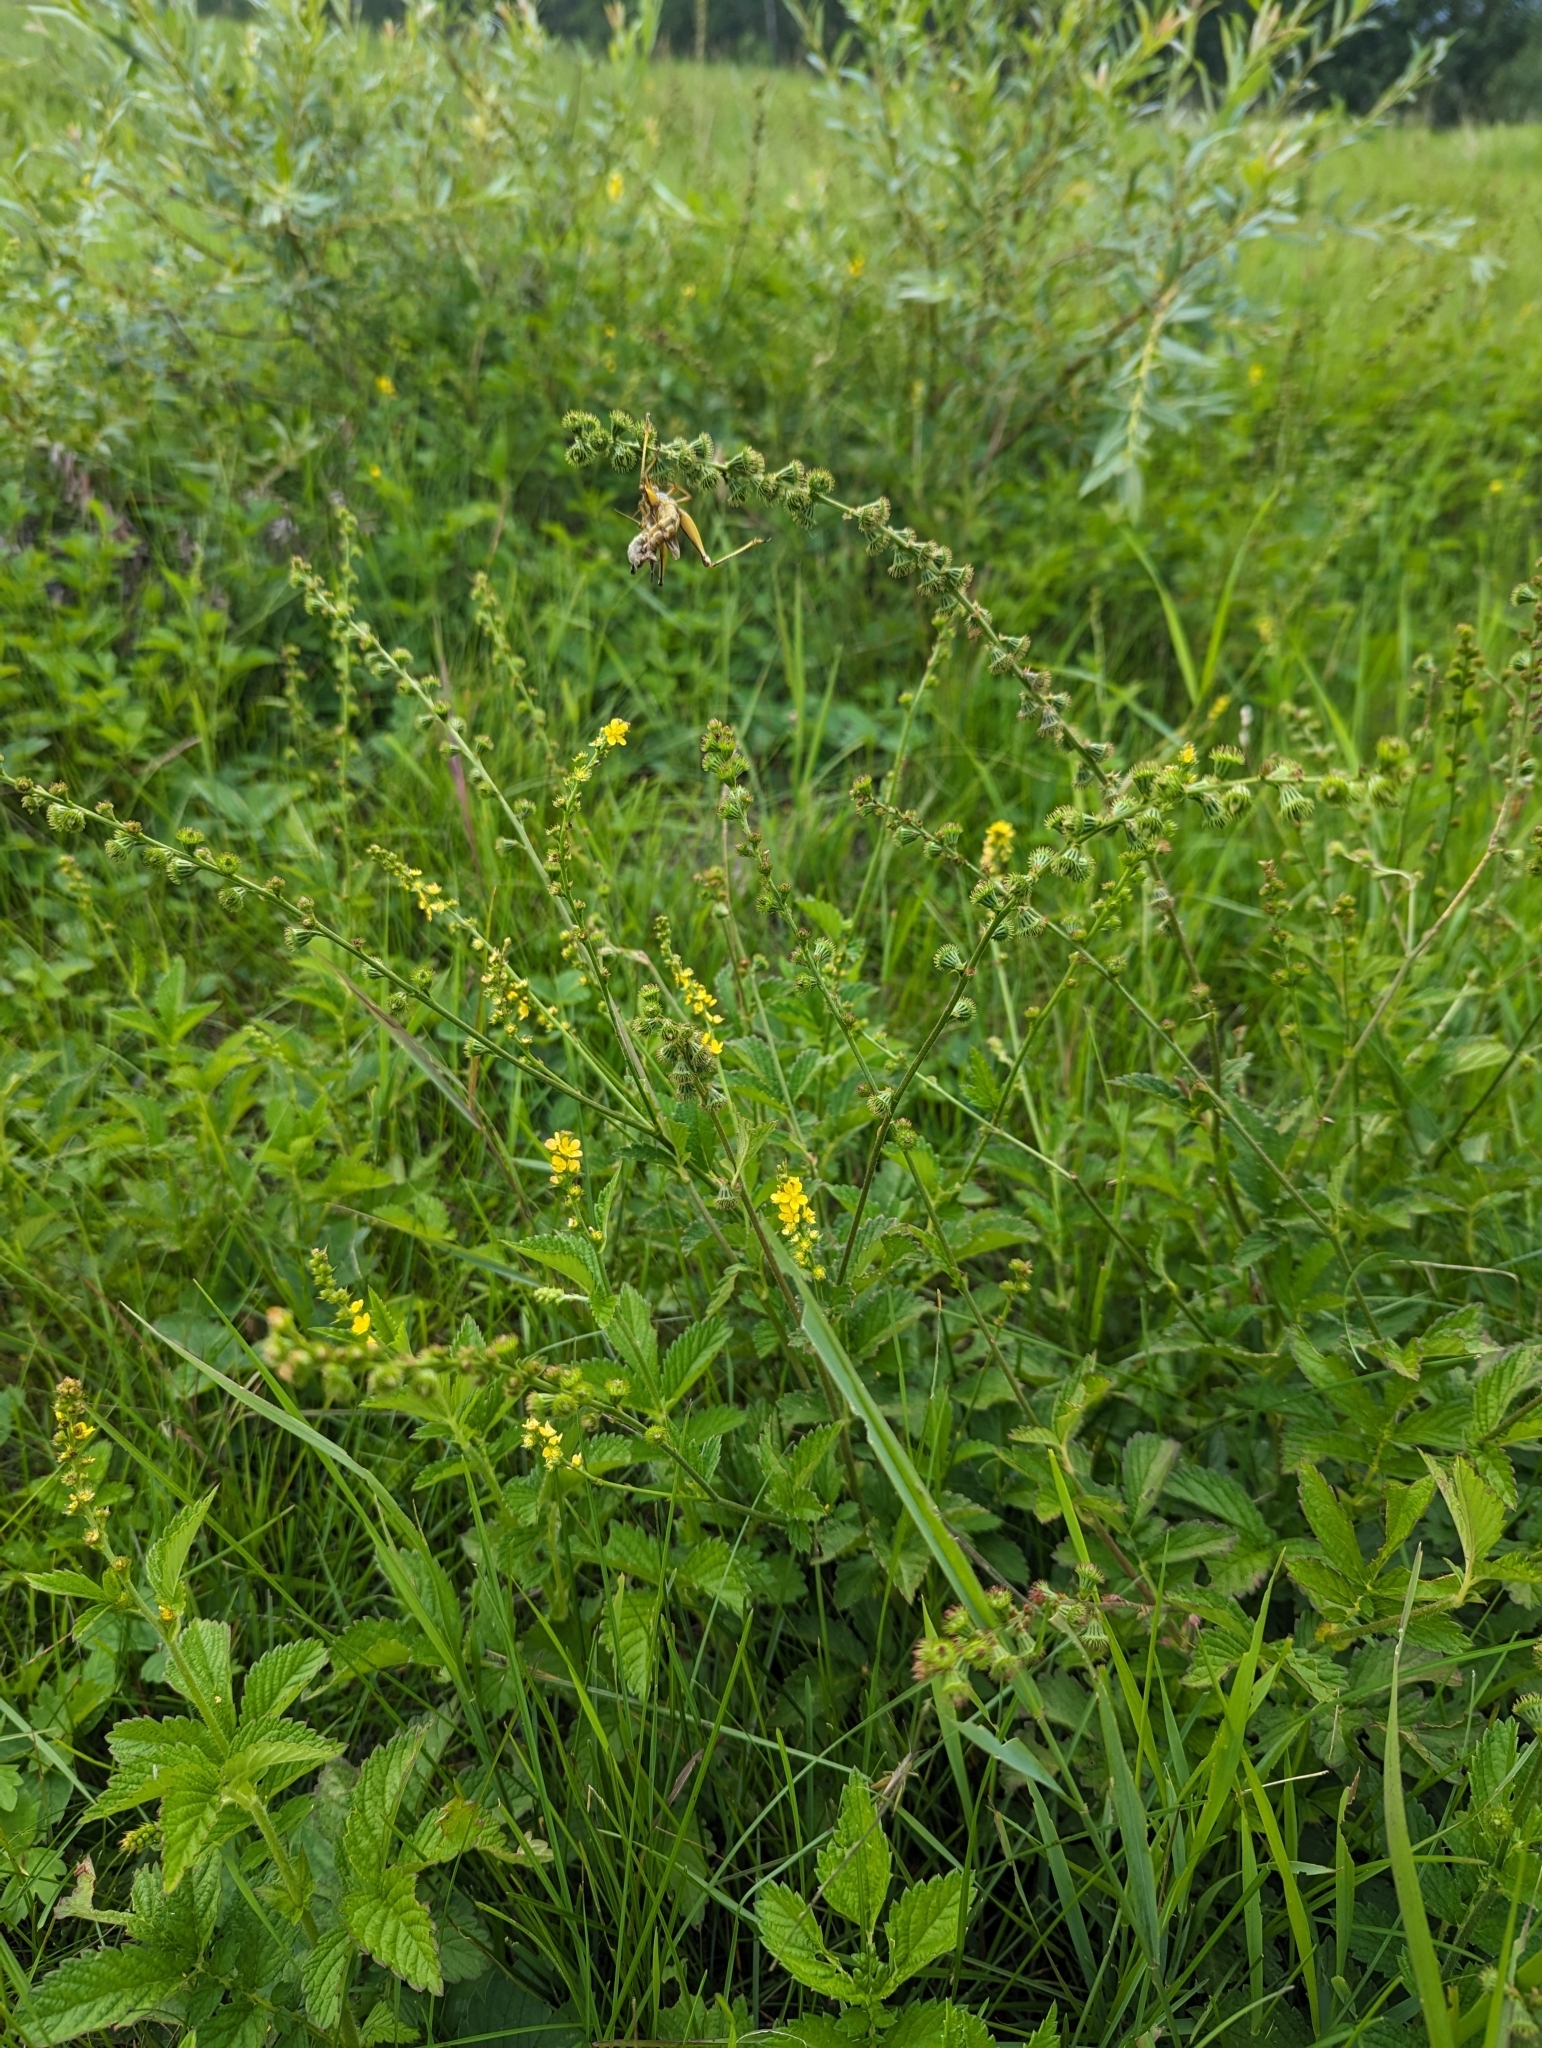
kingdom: Plantae
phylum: Tracheophyta
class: Magnoliopsida
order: Rosales
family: Rosaceae
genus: Agrimonia
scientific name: Agrimonia striata
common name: Britton's agrimony
